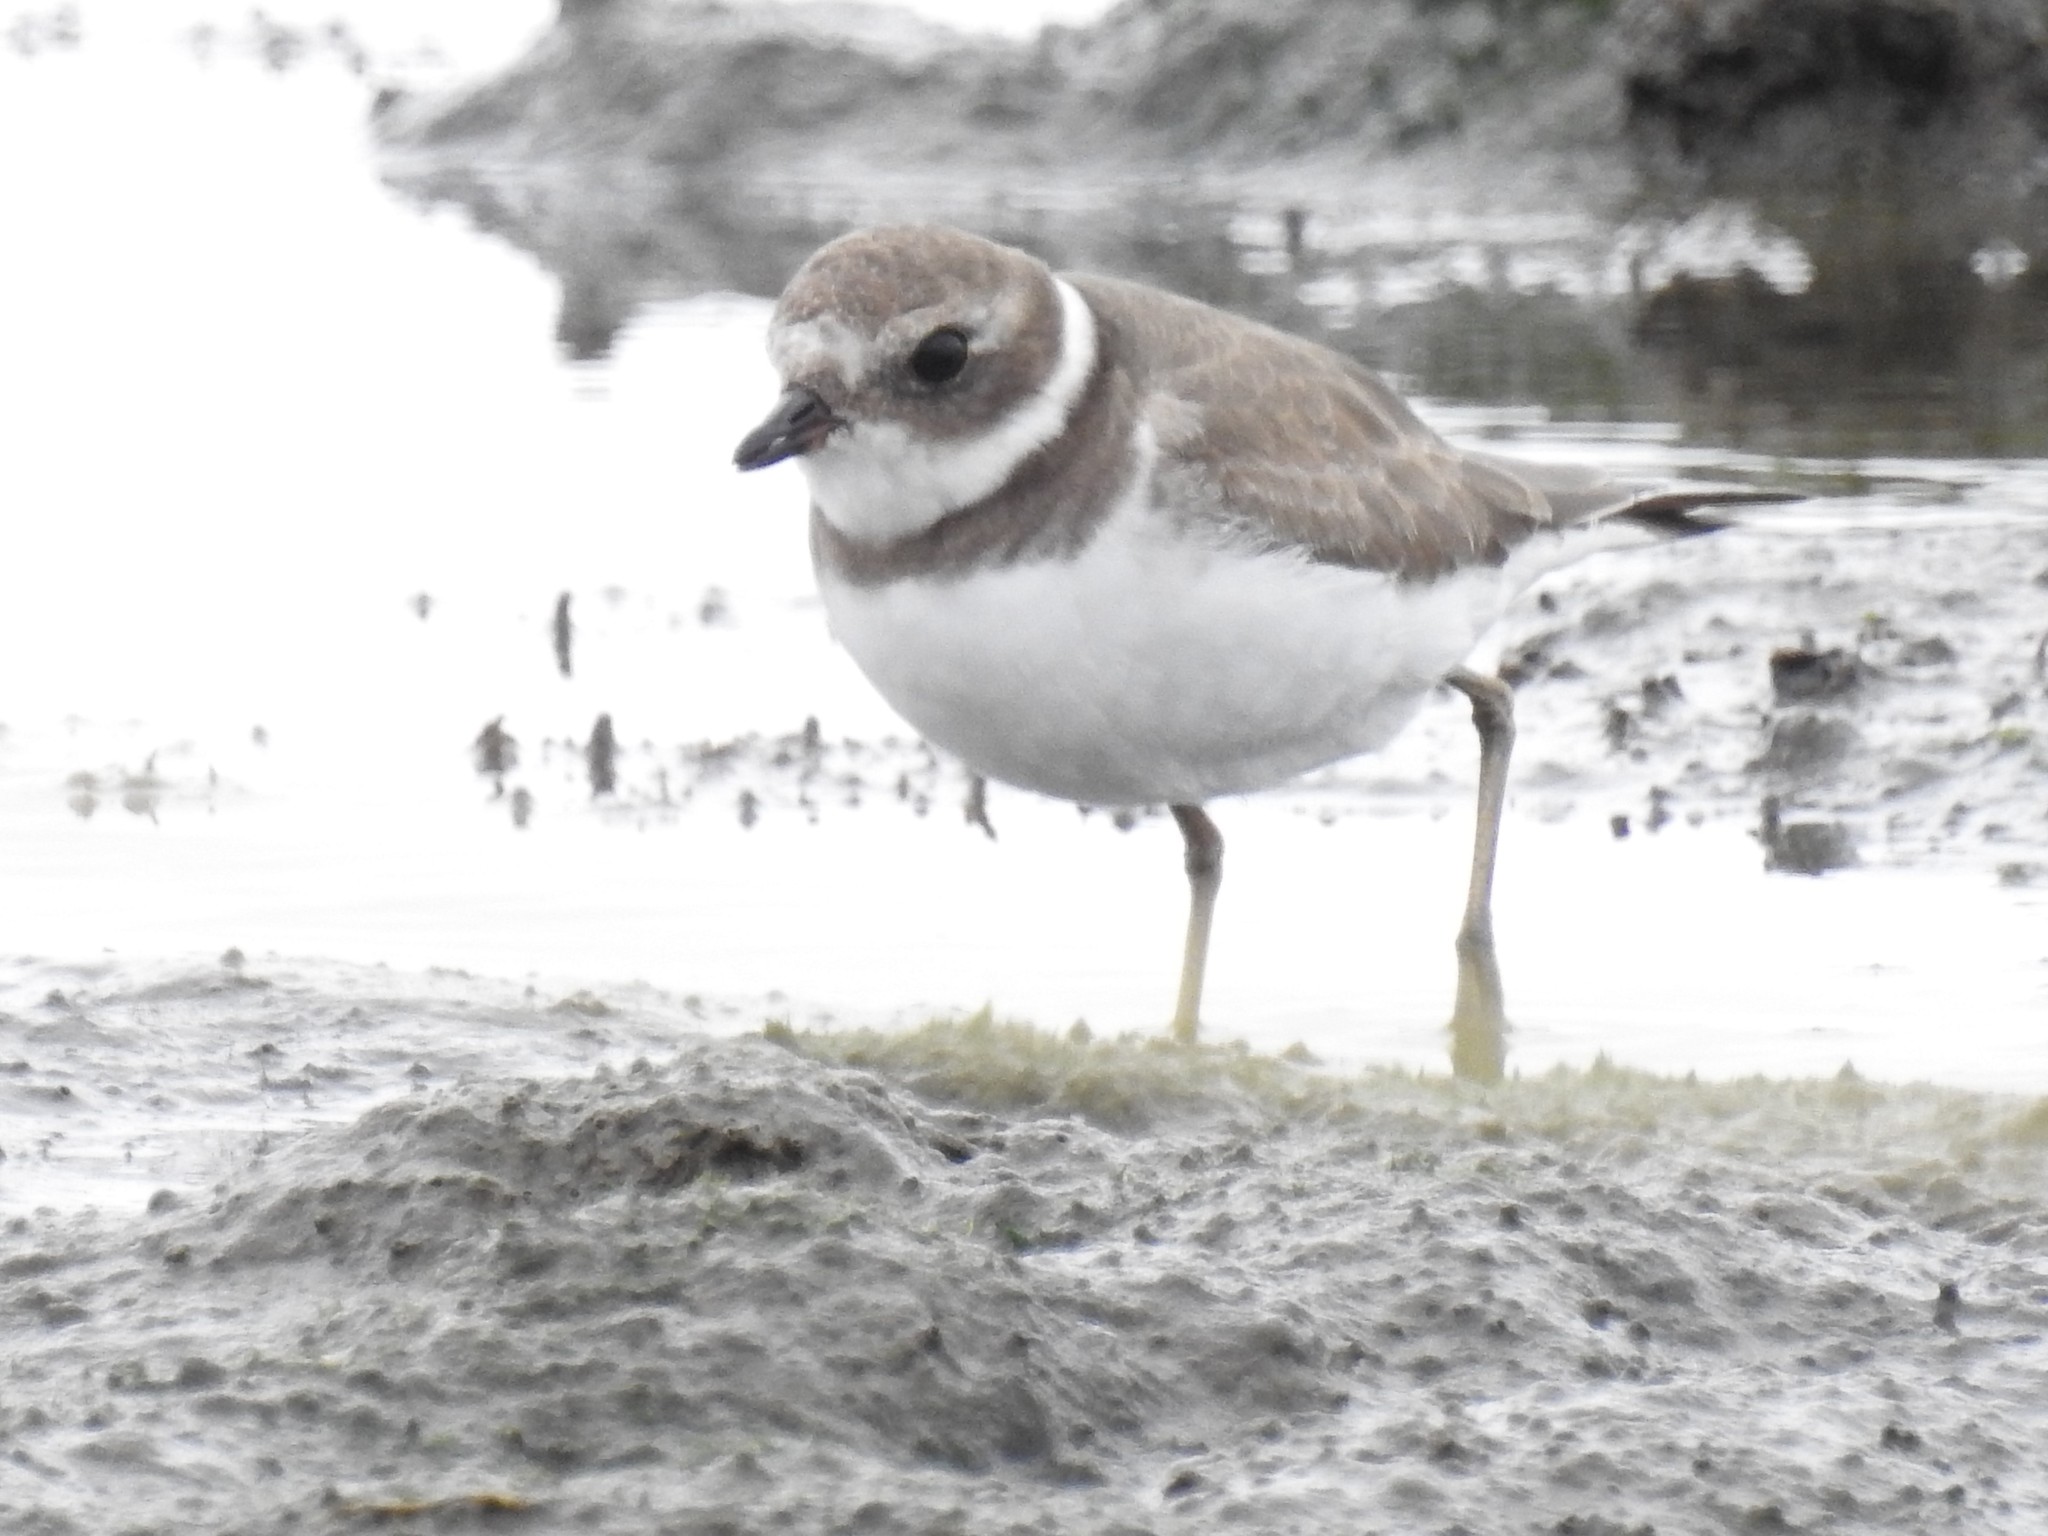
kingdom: Animalia
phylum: Chordata
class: Aves
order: Charadriiformes
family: Charadriidae
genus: Charadrius
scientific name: Charadrius semipalmatus
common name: Semipalmated plover
